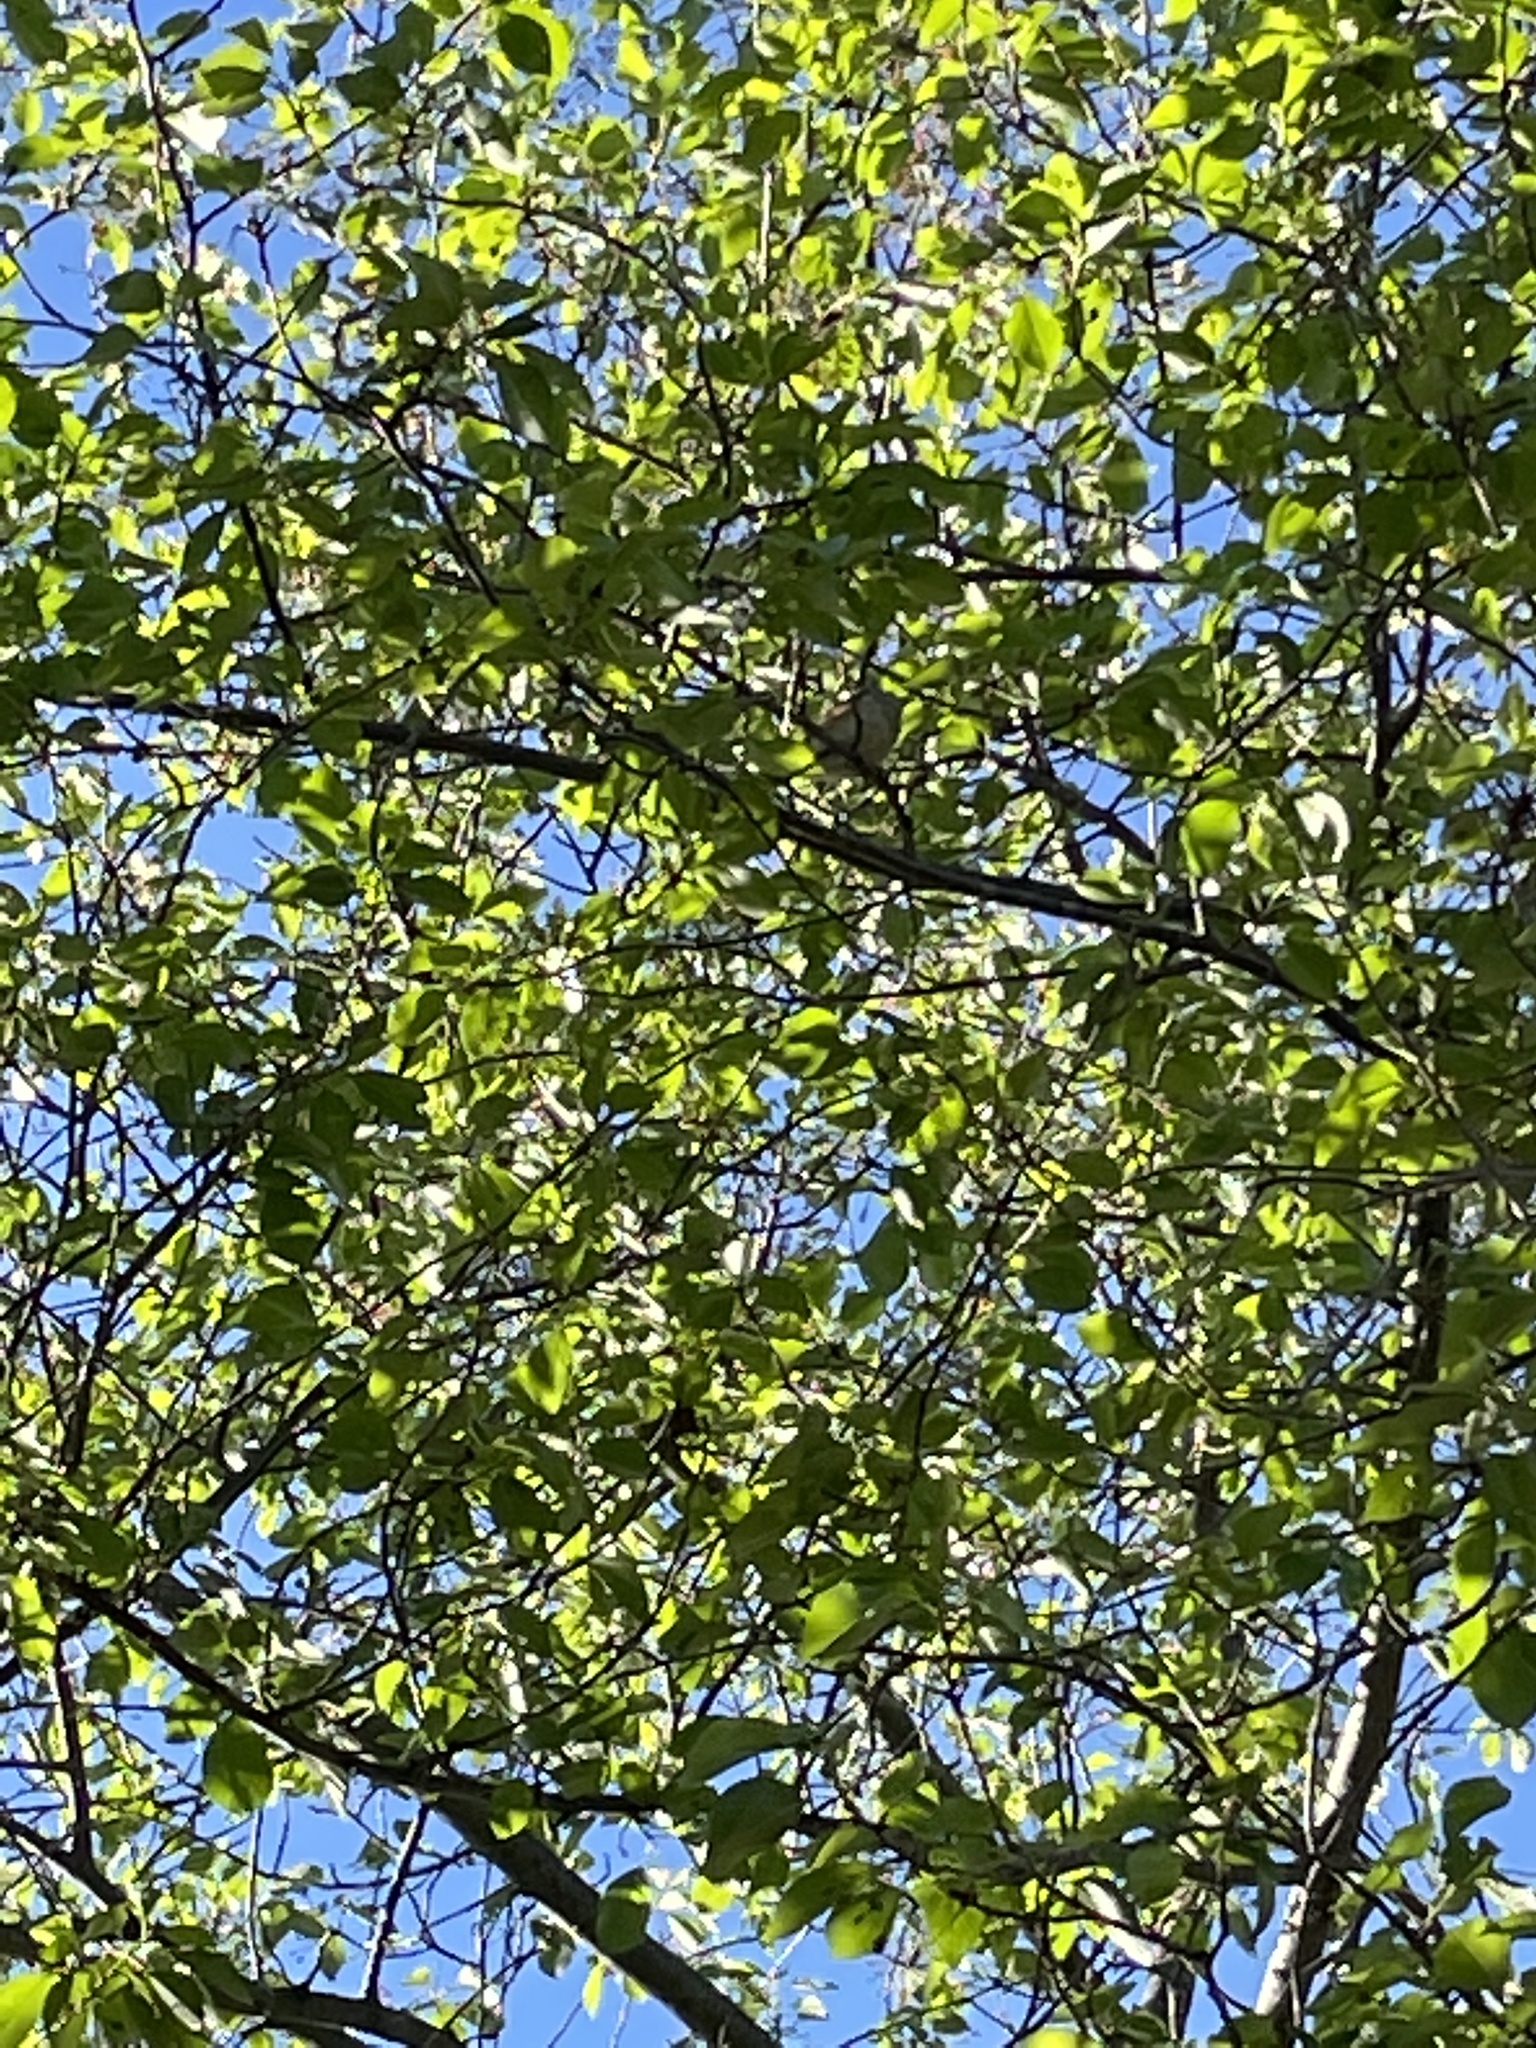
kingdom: Animalia
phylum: Chordata
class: Aves
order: Passeriformes
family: Paridae
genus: Baeolophus
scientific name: Baeolophus bicolor
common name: Tufted titmouse
